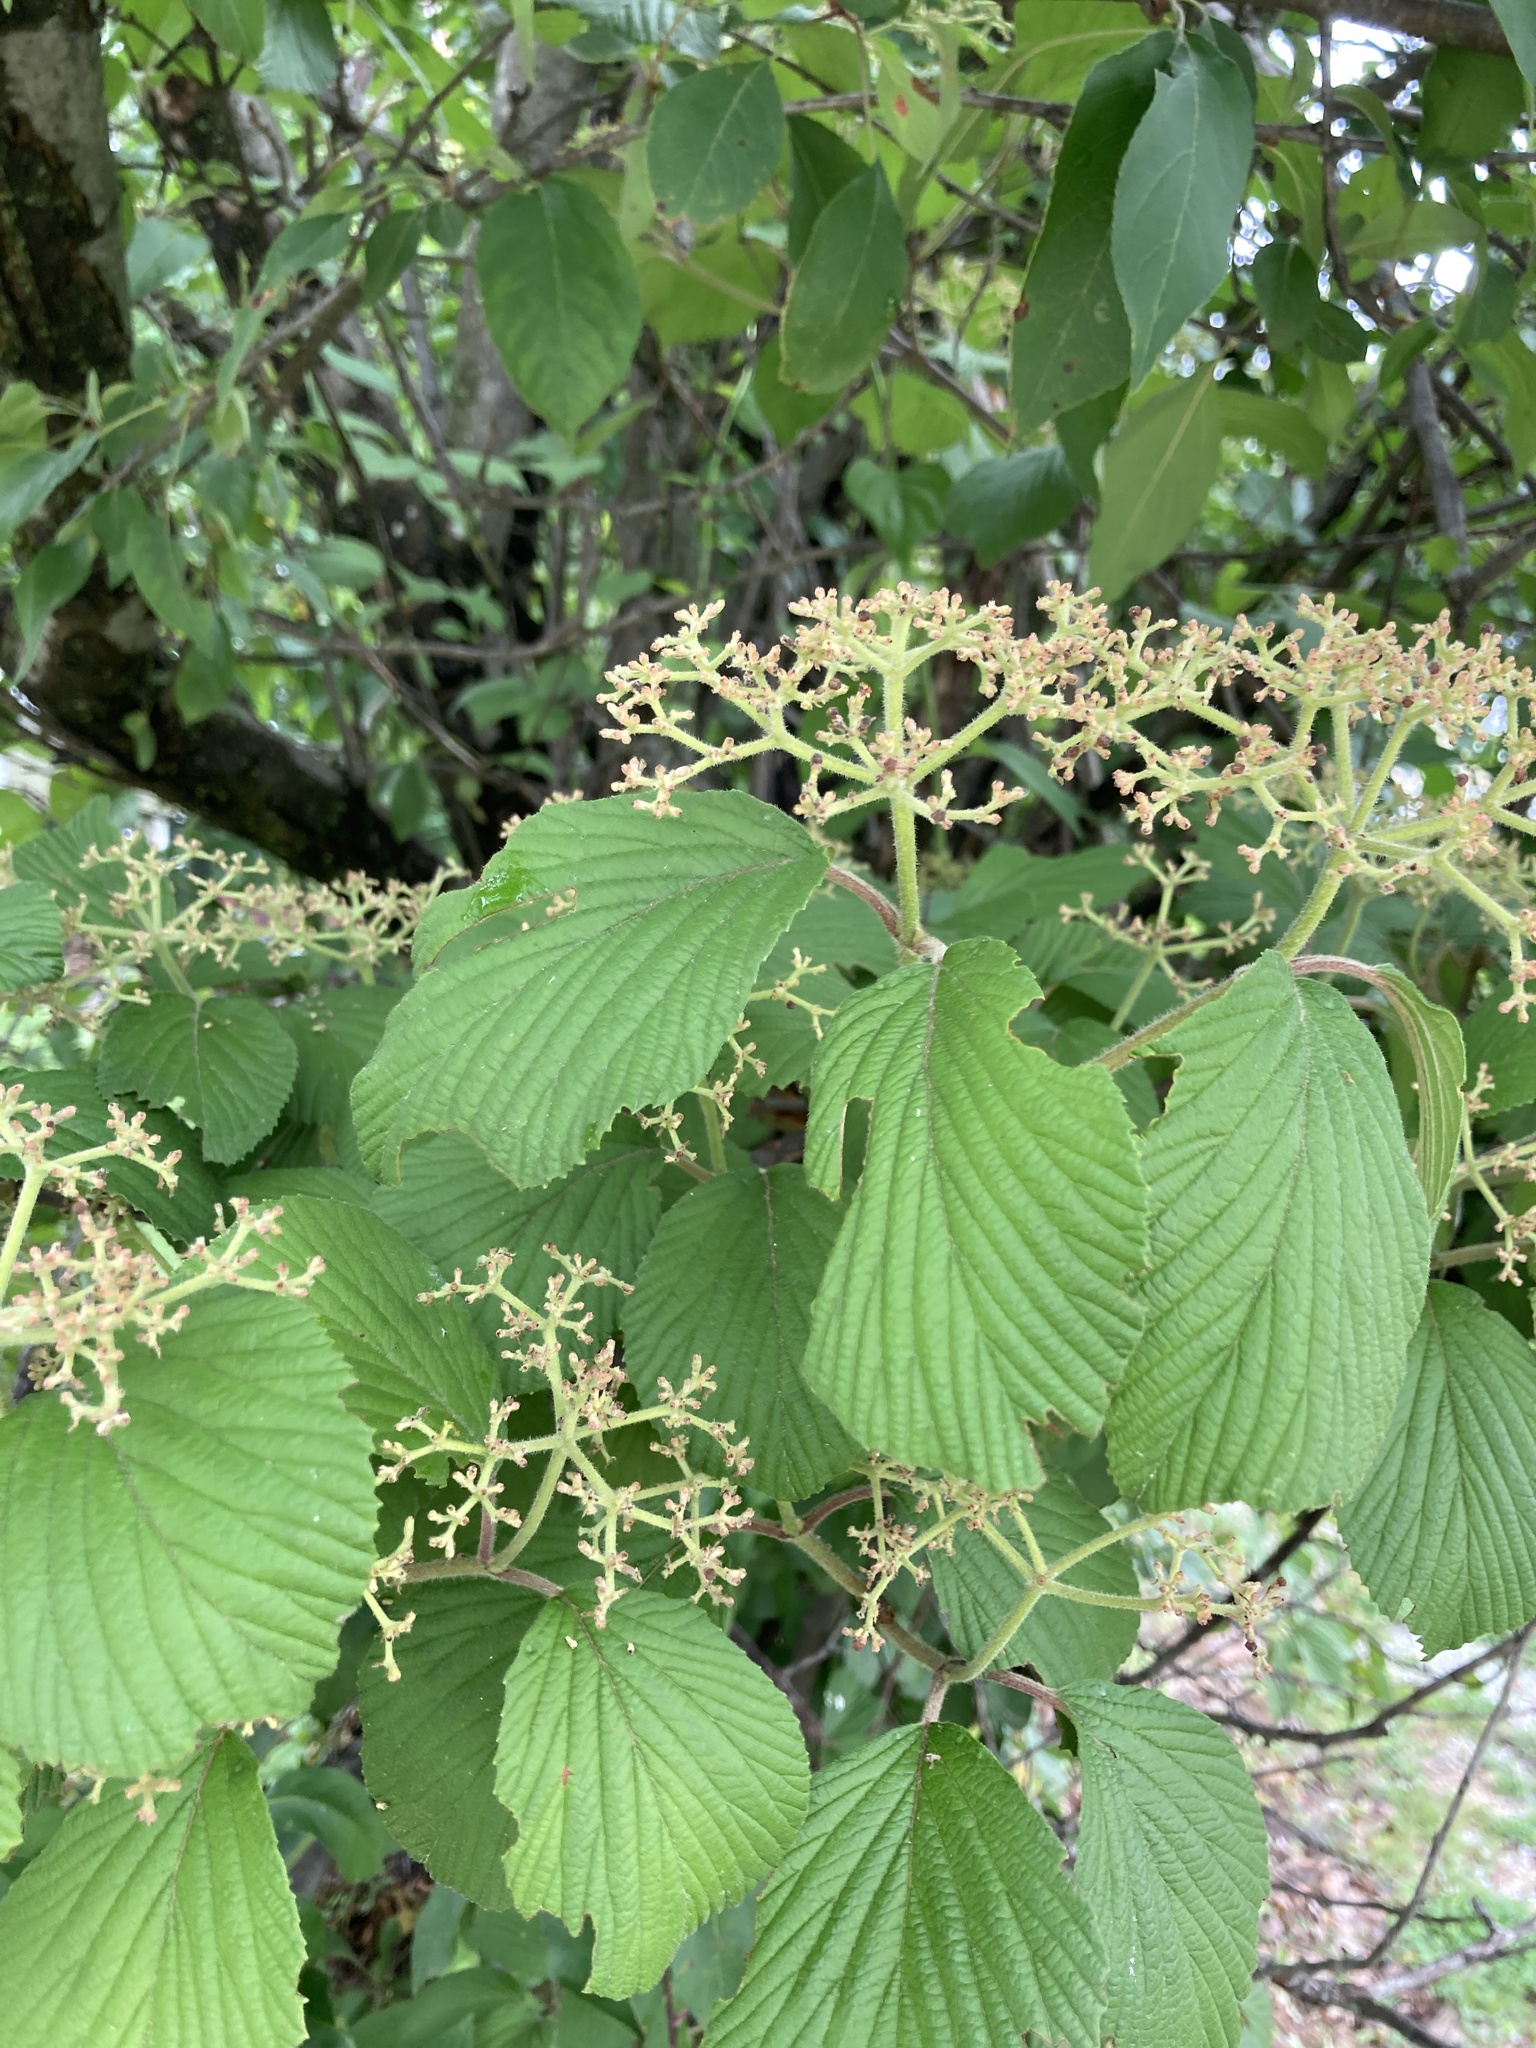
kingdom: Plantae
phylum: Tracheophyta
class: Magnoliopsida
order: Dipsacales
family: Viburnaceae
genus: Viburnum
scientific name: Viburnum dilatatum
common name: Linden arrowwood
